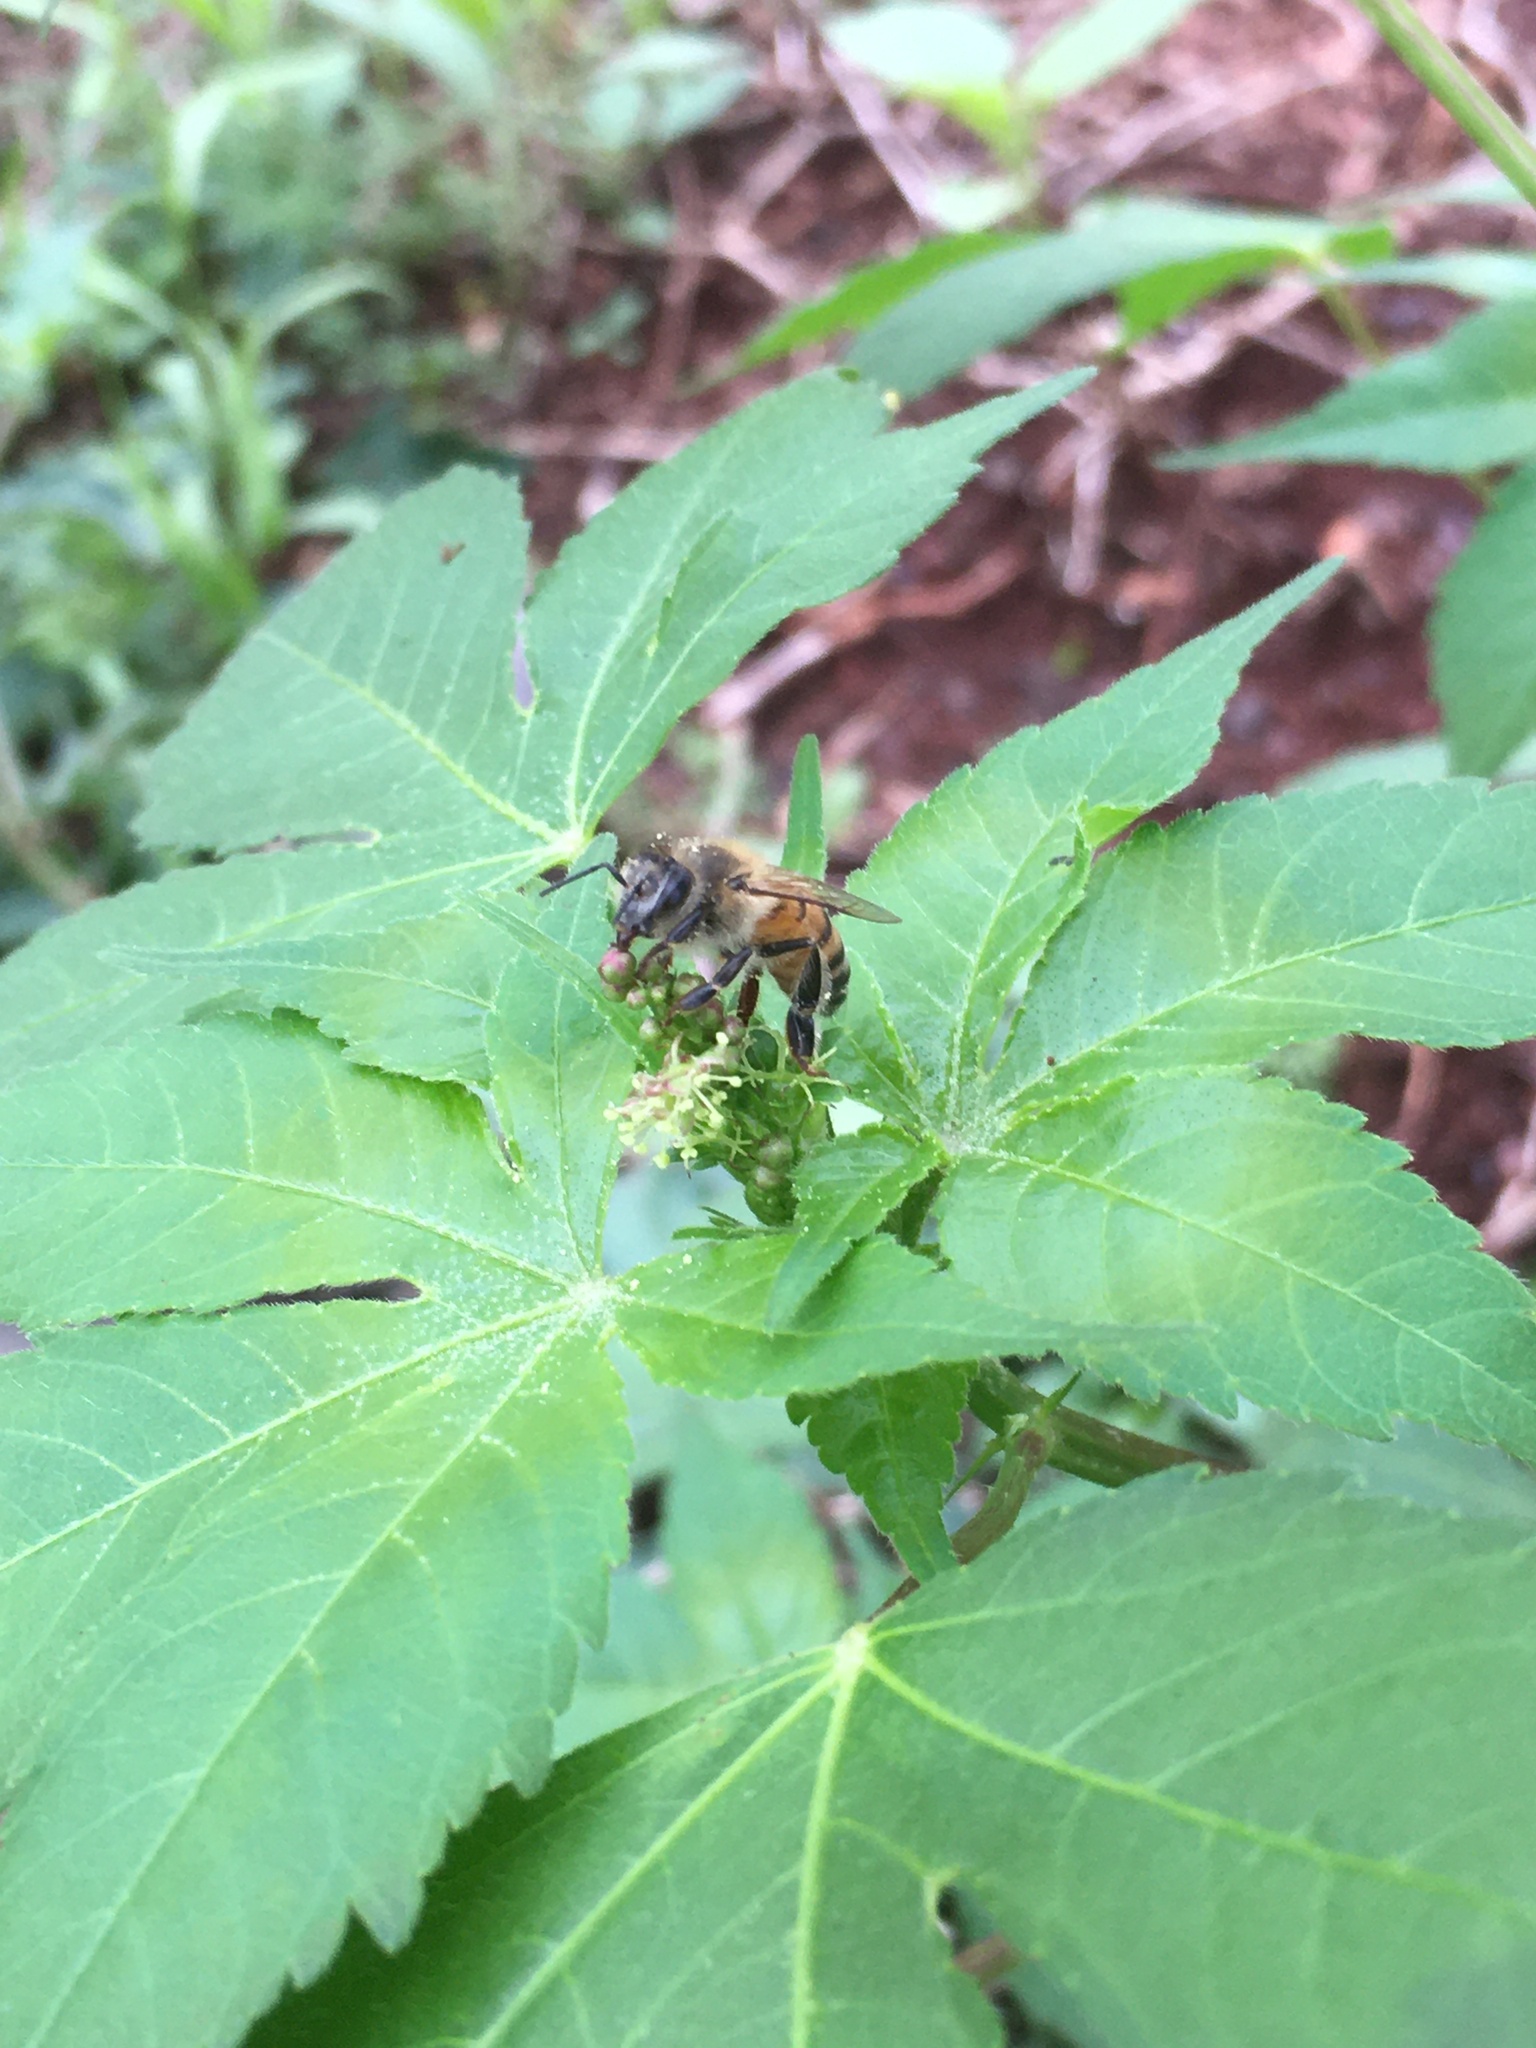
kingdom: Animalia
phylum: Arthropoda
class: Insecta
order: Hymenoptera
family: Apidae
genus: Apis
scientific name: Apis mellifera
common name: Honey bee
